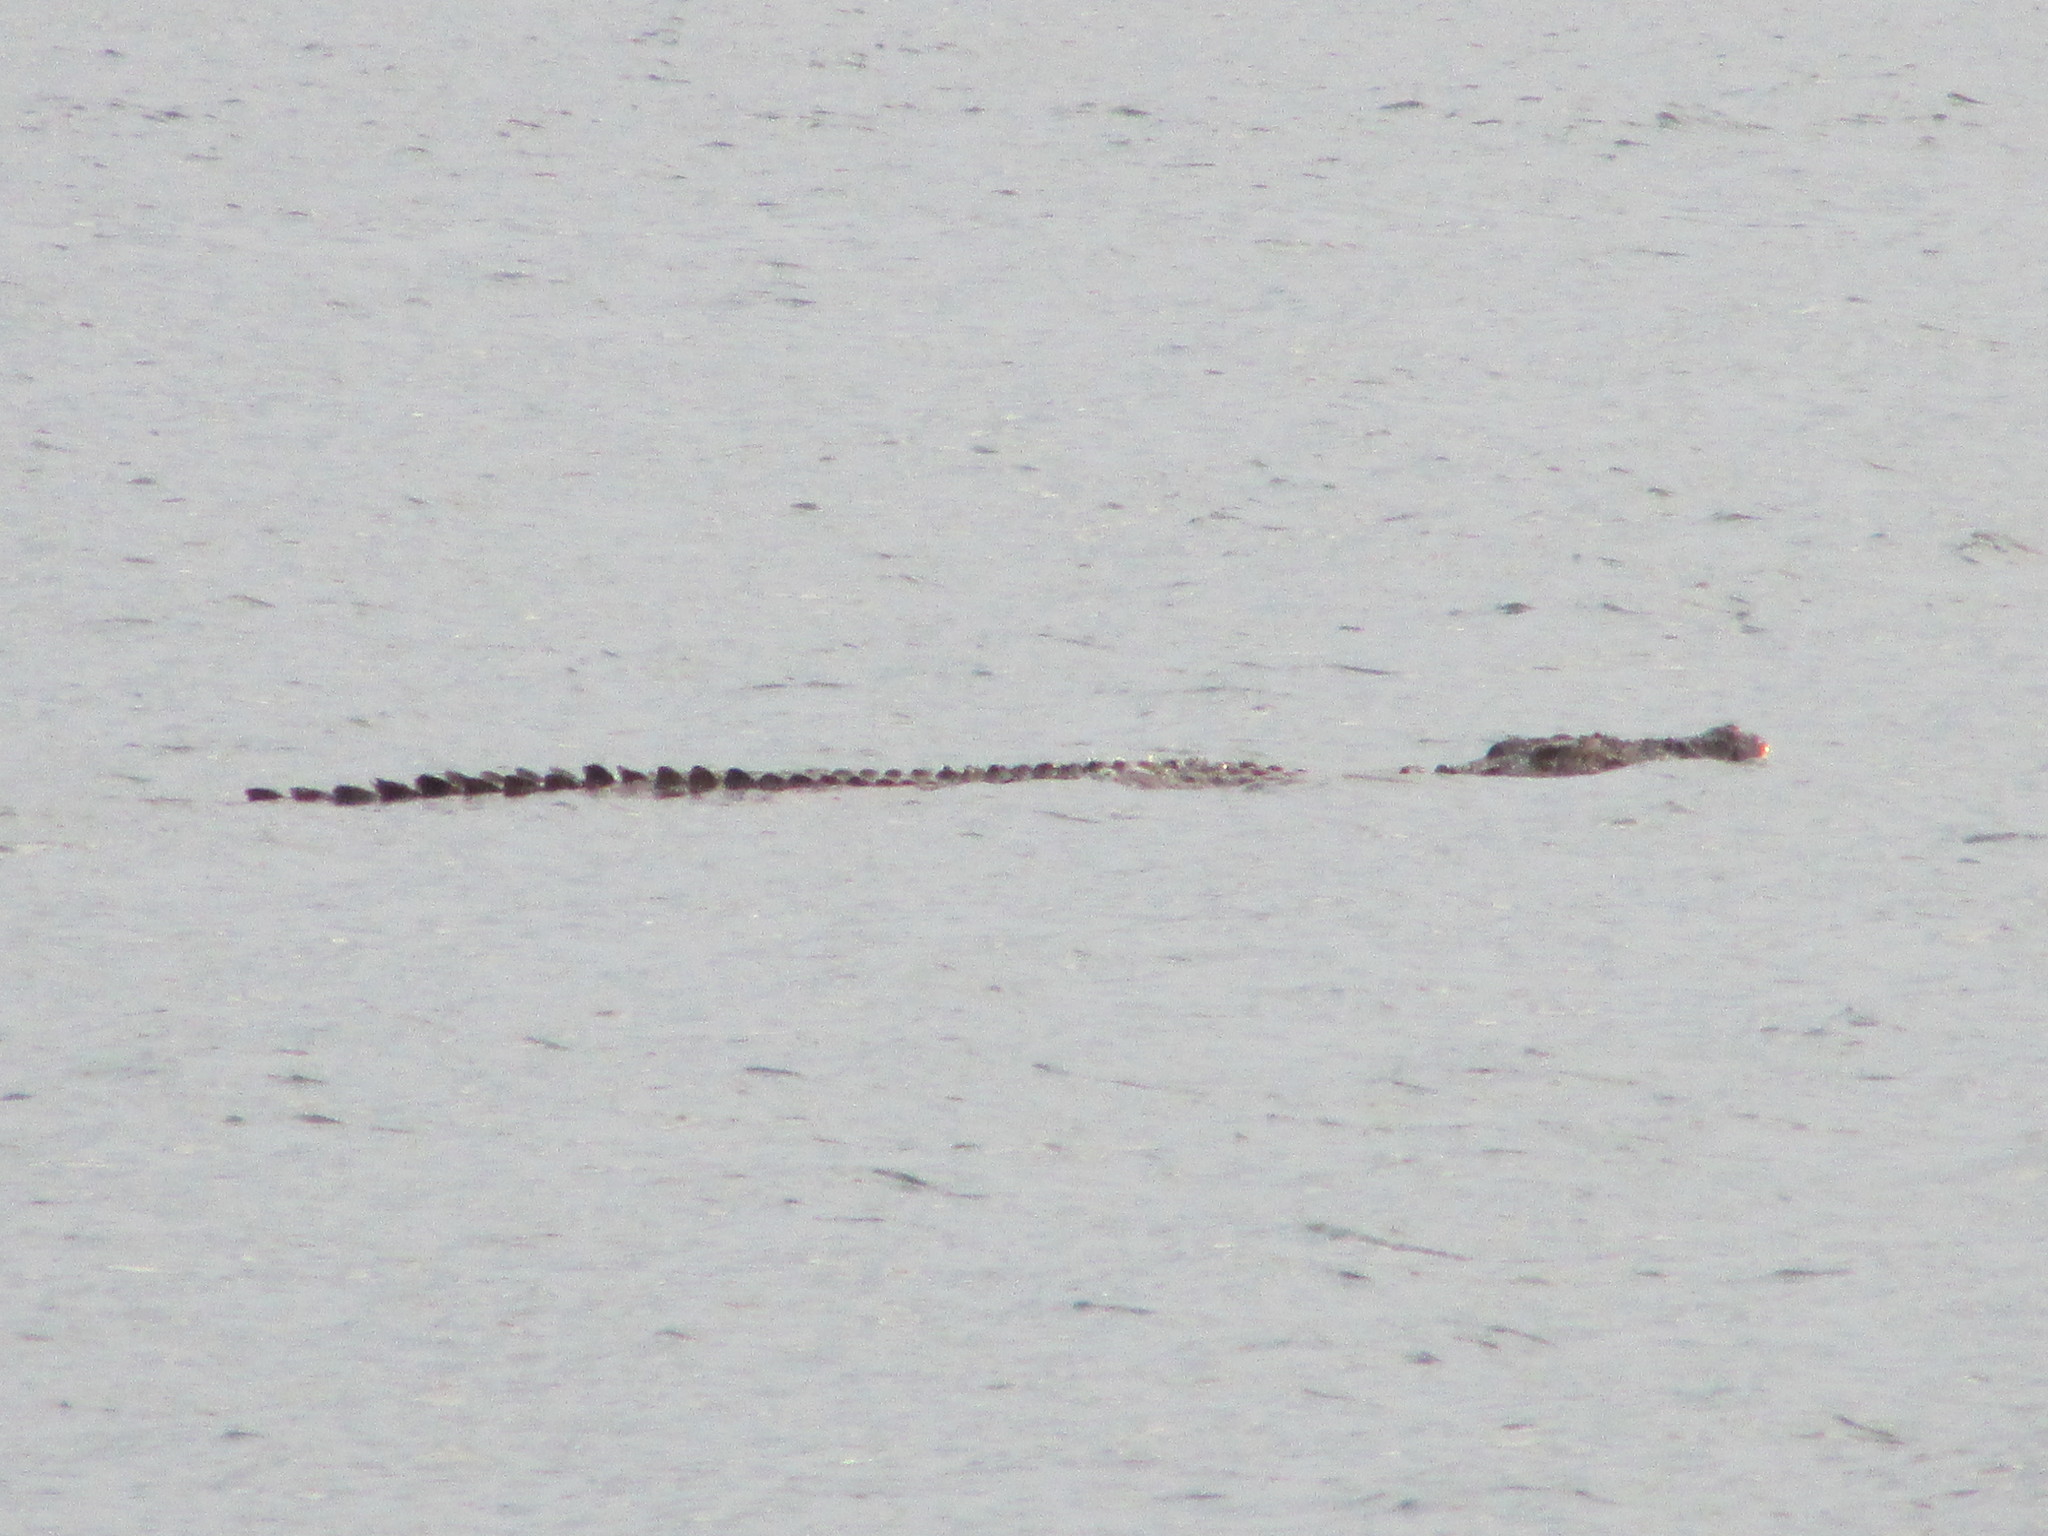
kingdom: Animalia
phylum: Chordata
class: Crocodylia
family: Crocodylidae
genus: Crocodylus
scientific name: Crocodylus porosus
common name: Saltwater crocodile
